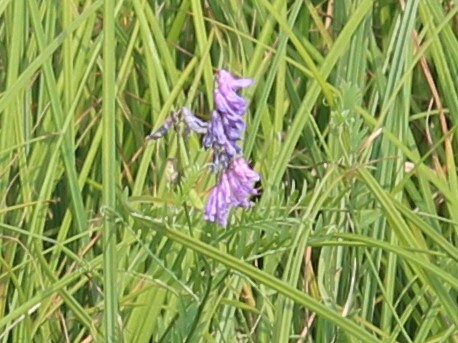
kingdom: Plantae
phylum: Tracheophyta
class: Magnoliopsida
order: Fabales
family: Fabaceae
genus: Vicia
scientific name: Vicia cracca
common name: Bird vetch
